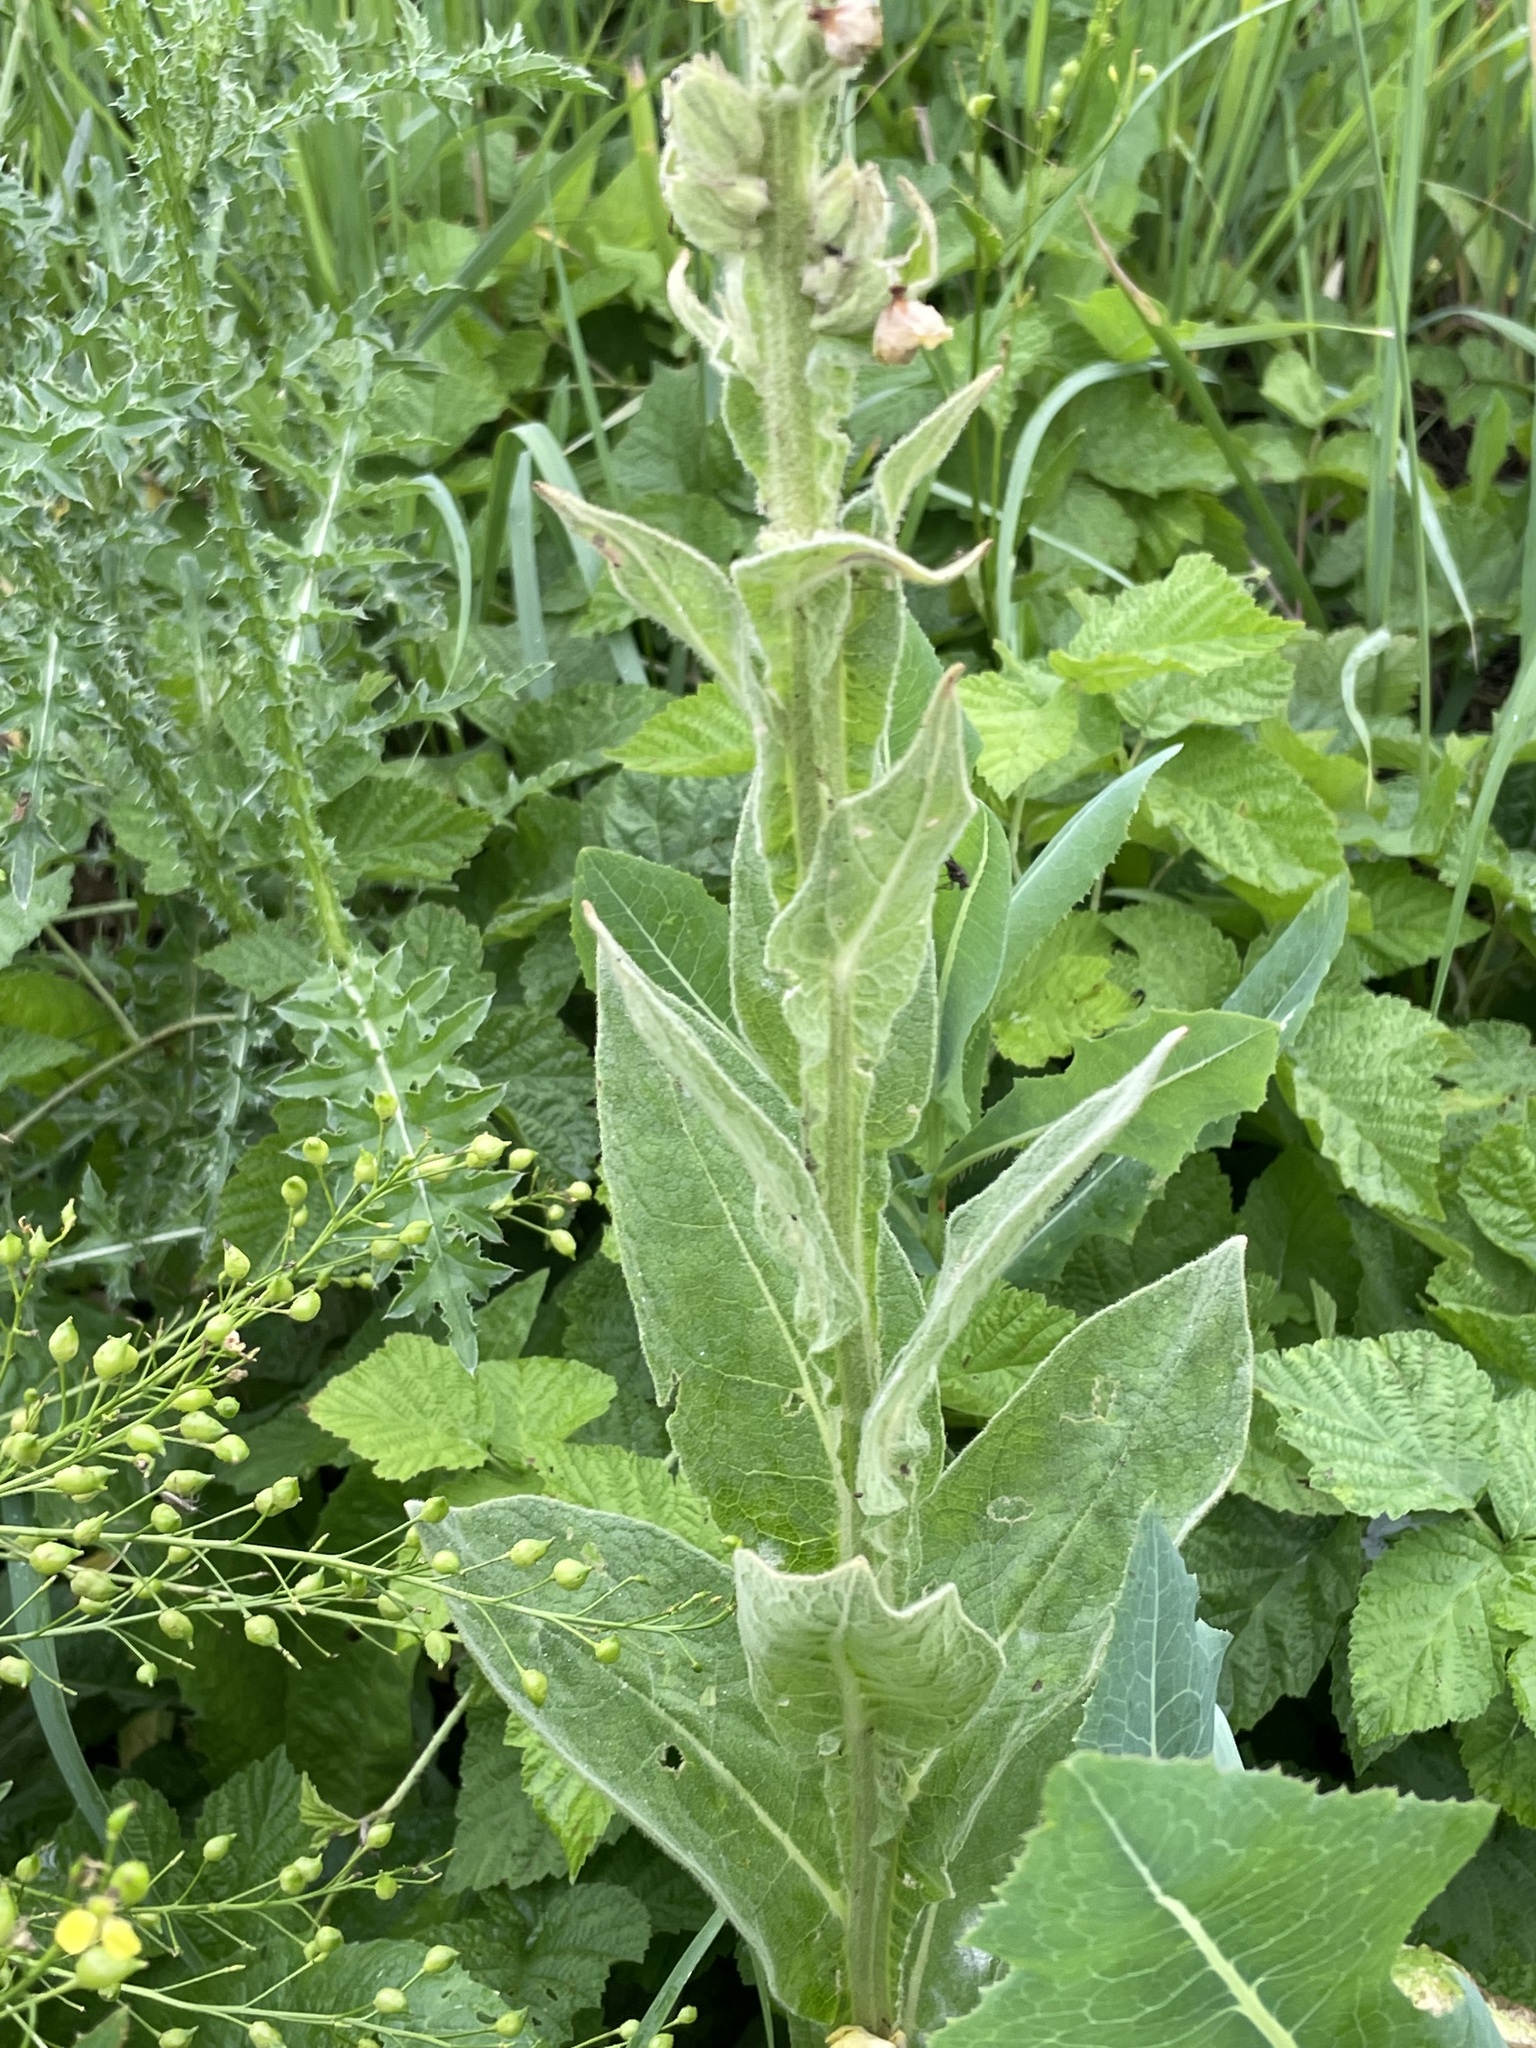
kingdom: Plantae
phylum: Tracheophyta
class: Magnoliopsida
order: Lamiales
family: Scrophulariaceae
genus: Verbascum
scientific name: Verbascum thapsus
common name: Common mullein
